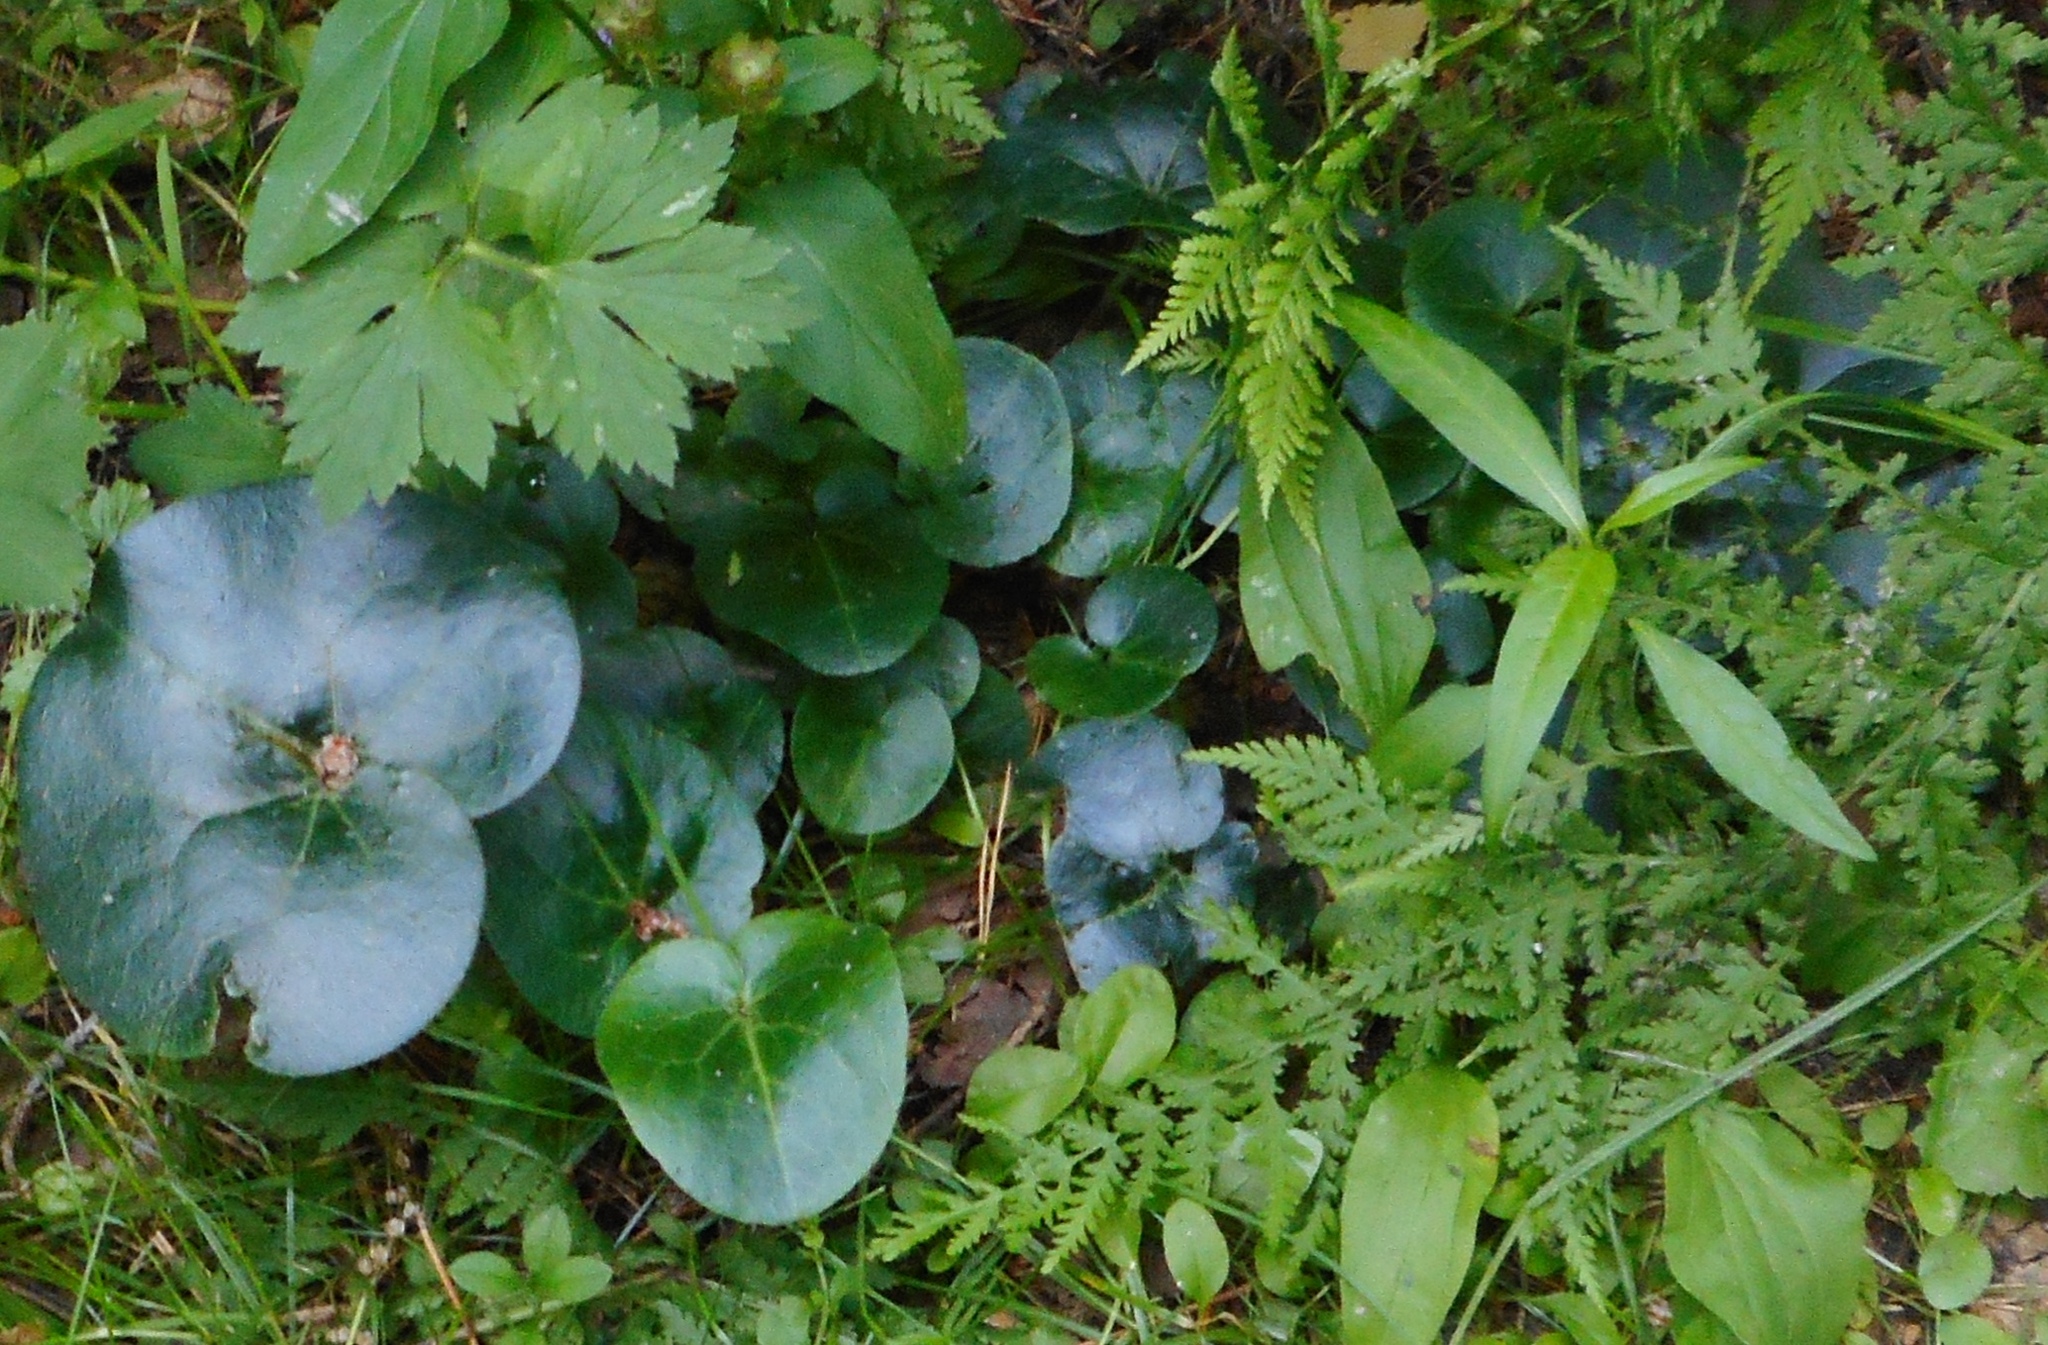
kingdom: Plantae
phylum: Tracheophyta
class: Magnoliopsida
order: Piperales
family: Aristolochiaceae
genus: Asarum
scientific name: Asarum europaeum
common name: Asarabacca
